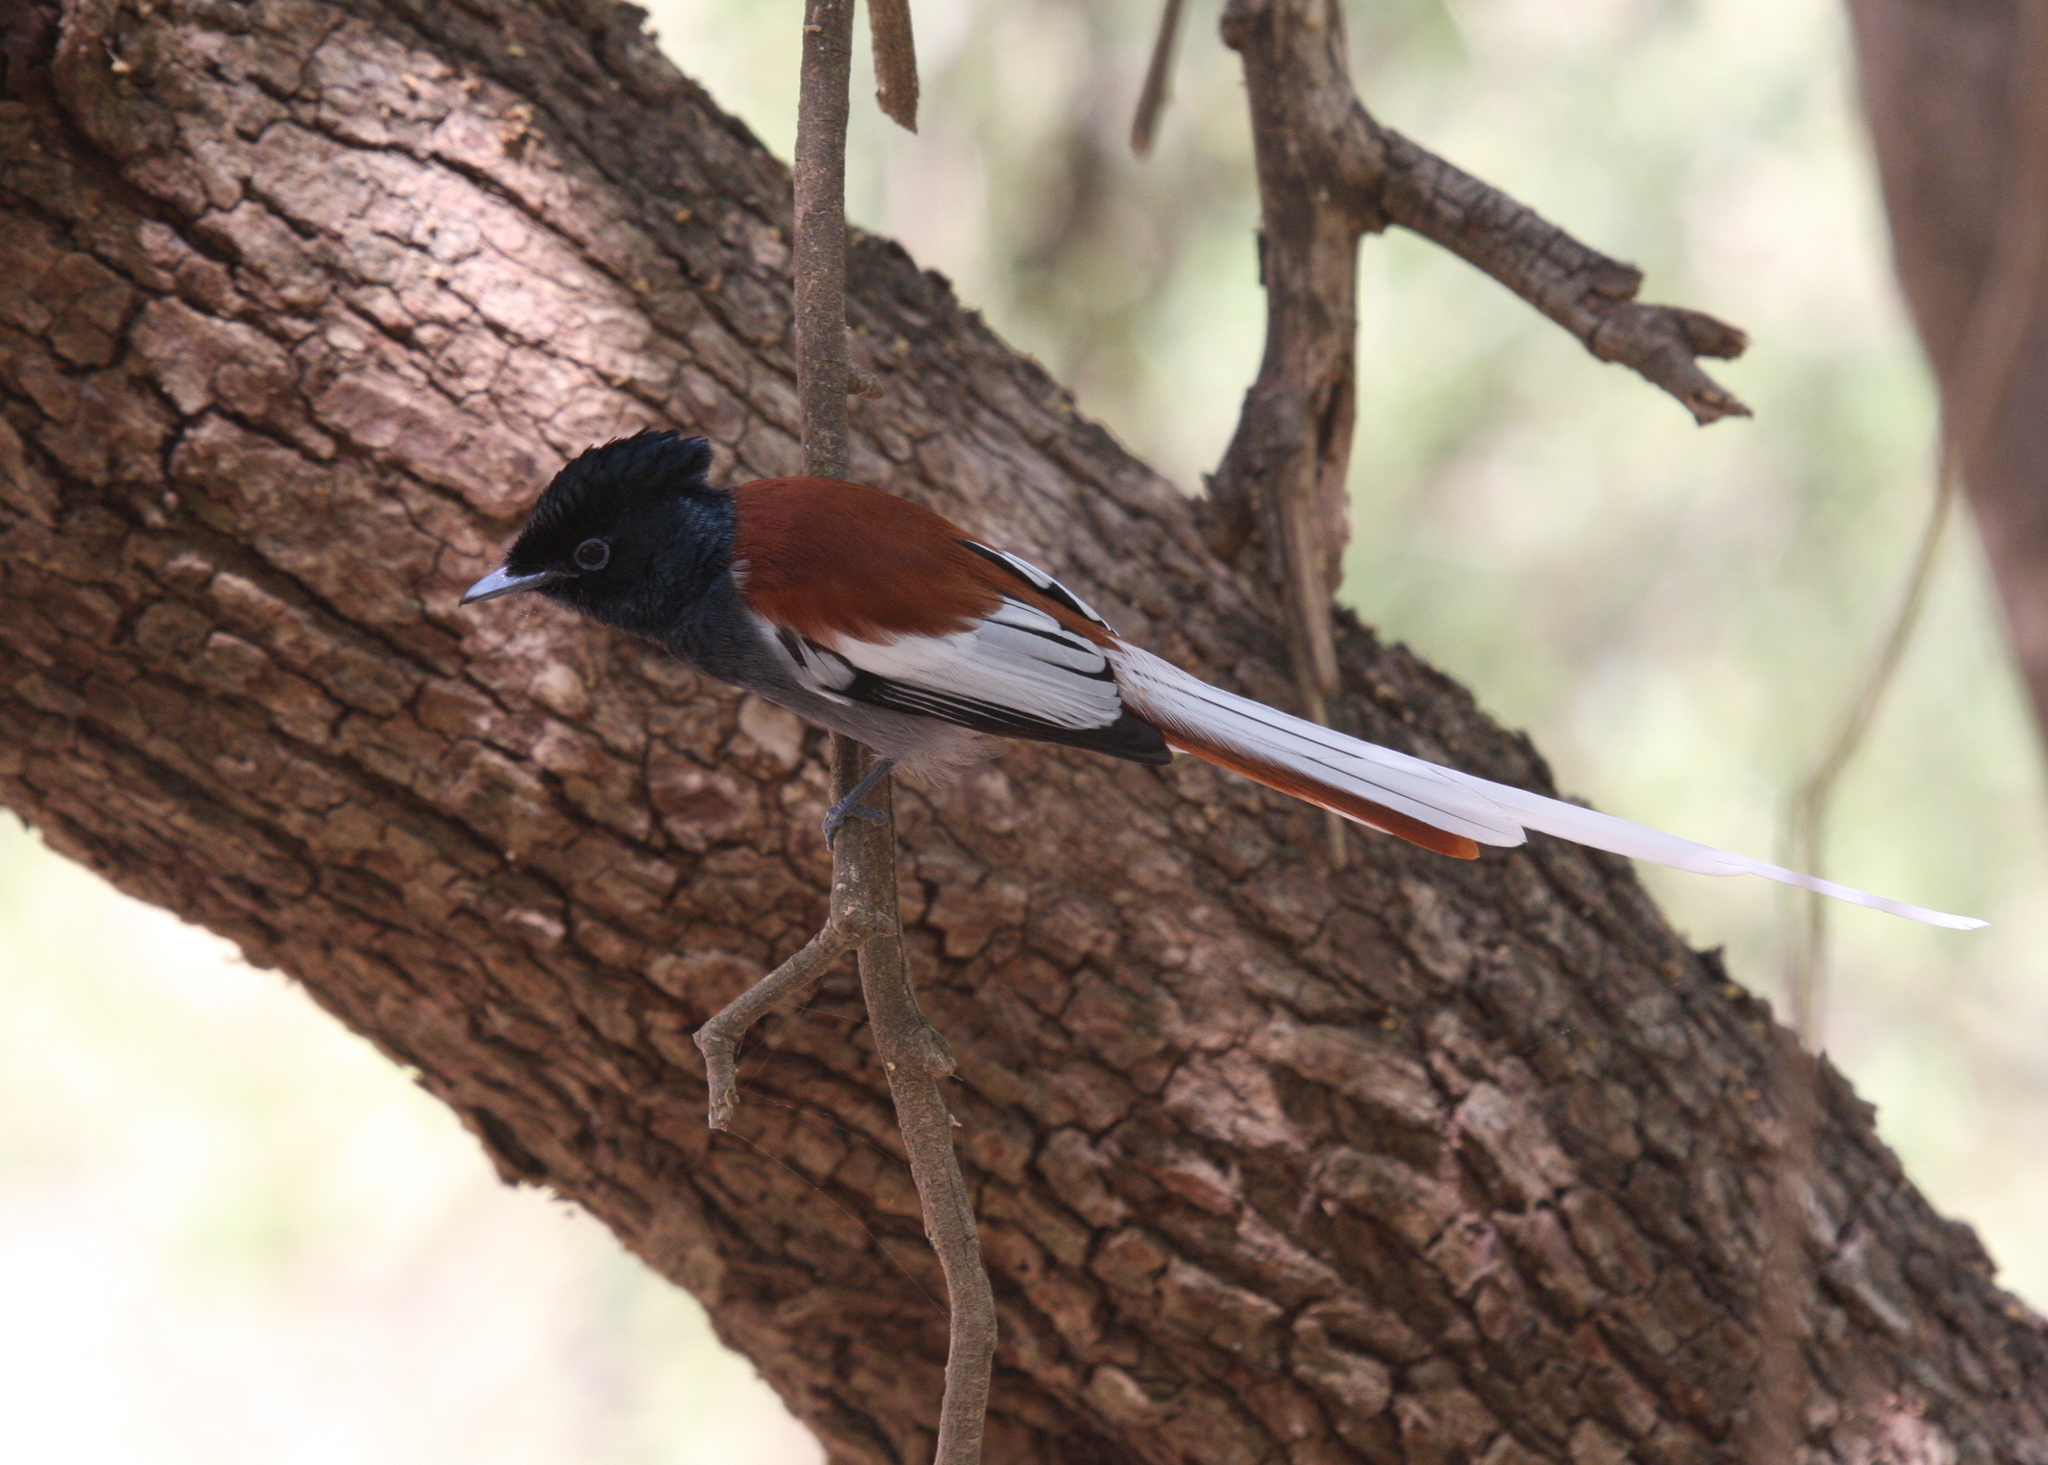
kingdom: Animalia
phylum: Chordata
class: Aves
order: Passeriformes
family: Monarchidae
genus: Terpsiphone
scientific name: Terpsiphone viridis
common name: African paradise flycatcher
